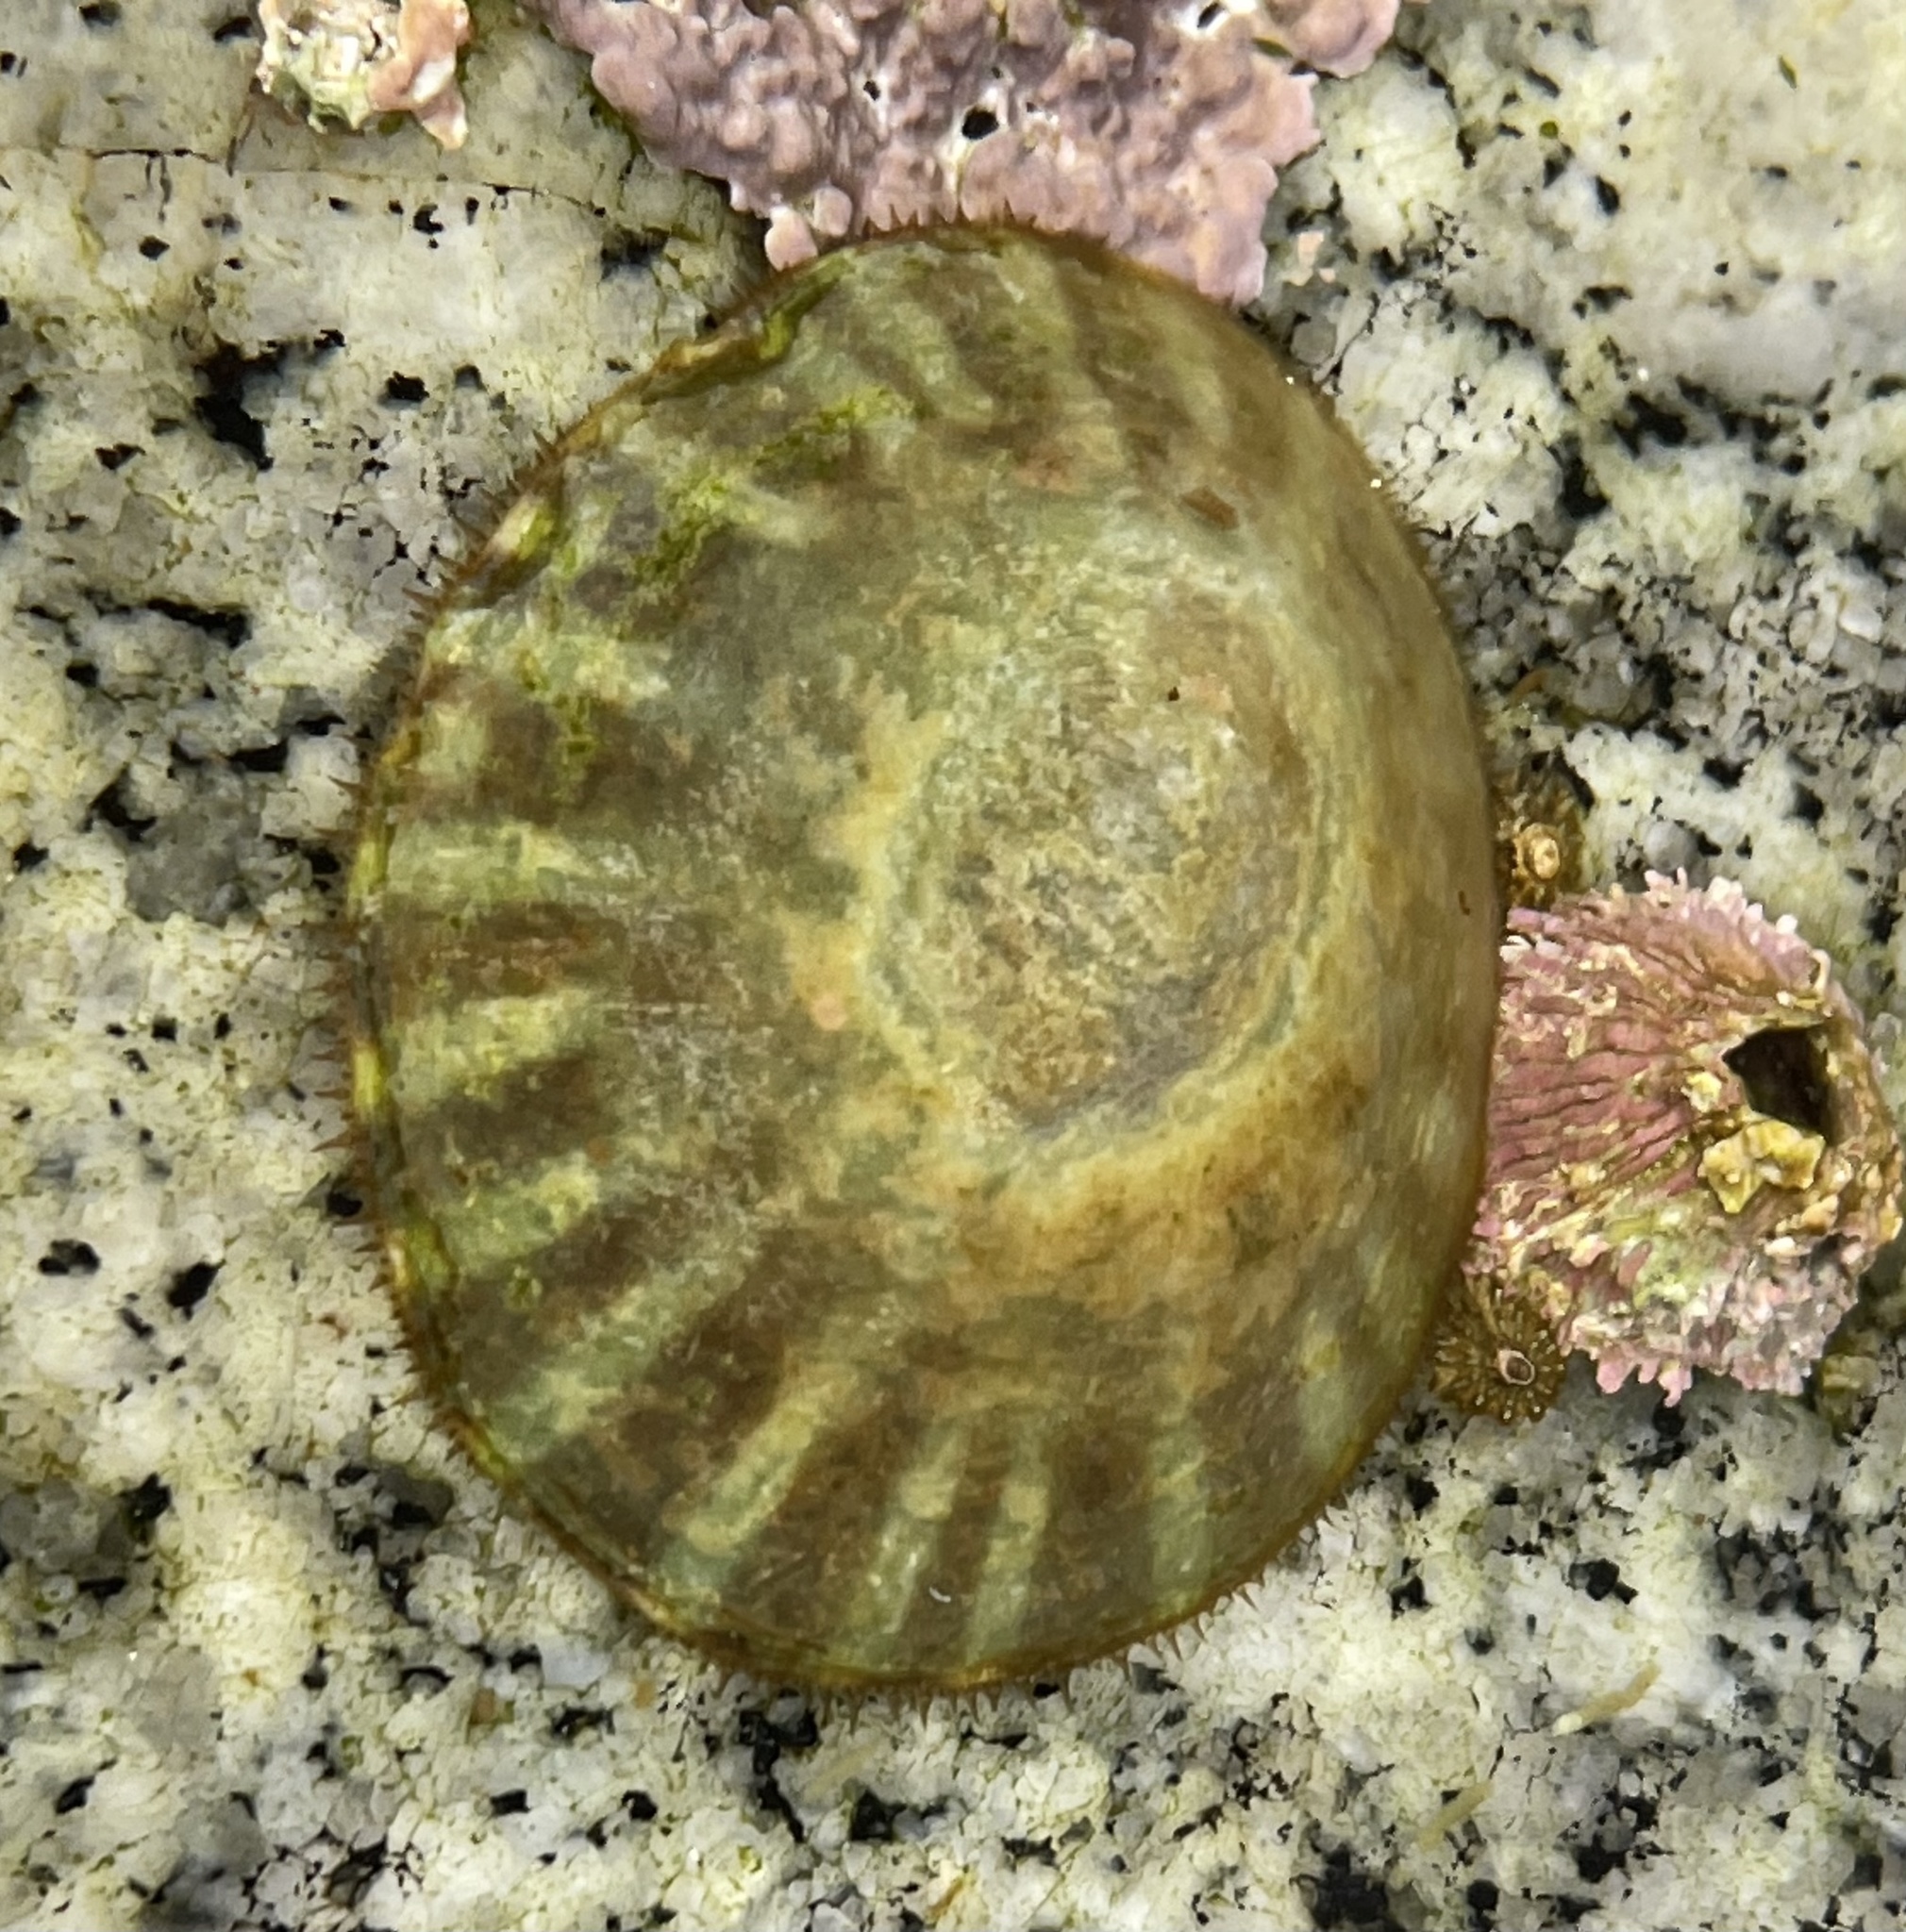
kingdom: Animalia
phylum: Mollusca
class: Gastropoda
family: Lottiidae
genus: Lottia
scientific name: Lottia scutum
